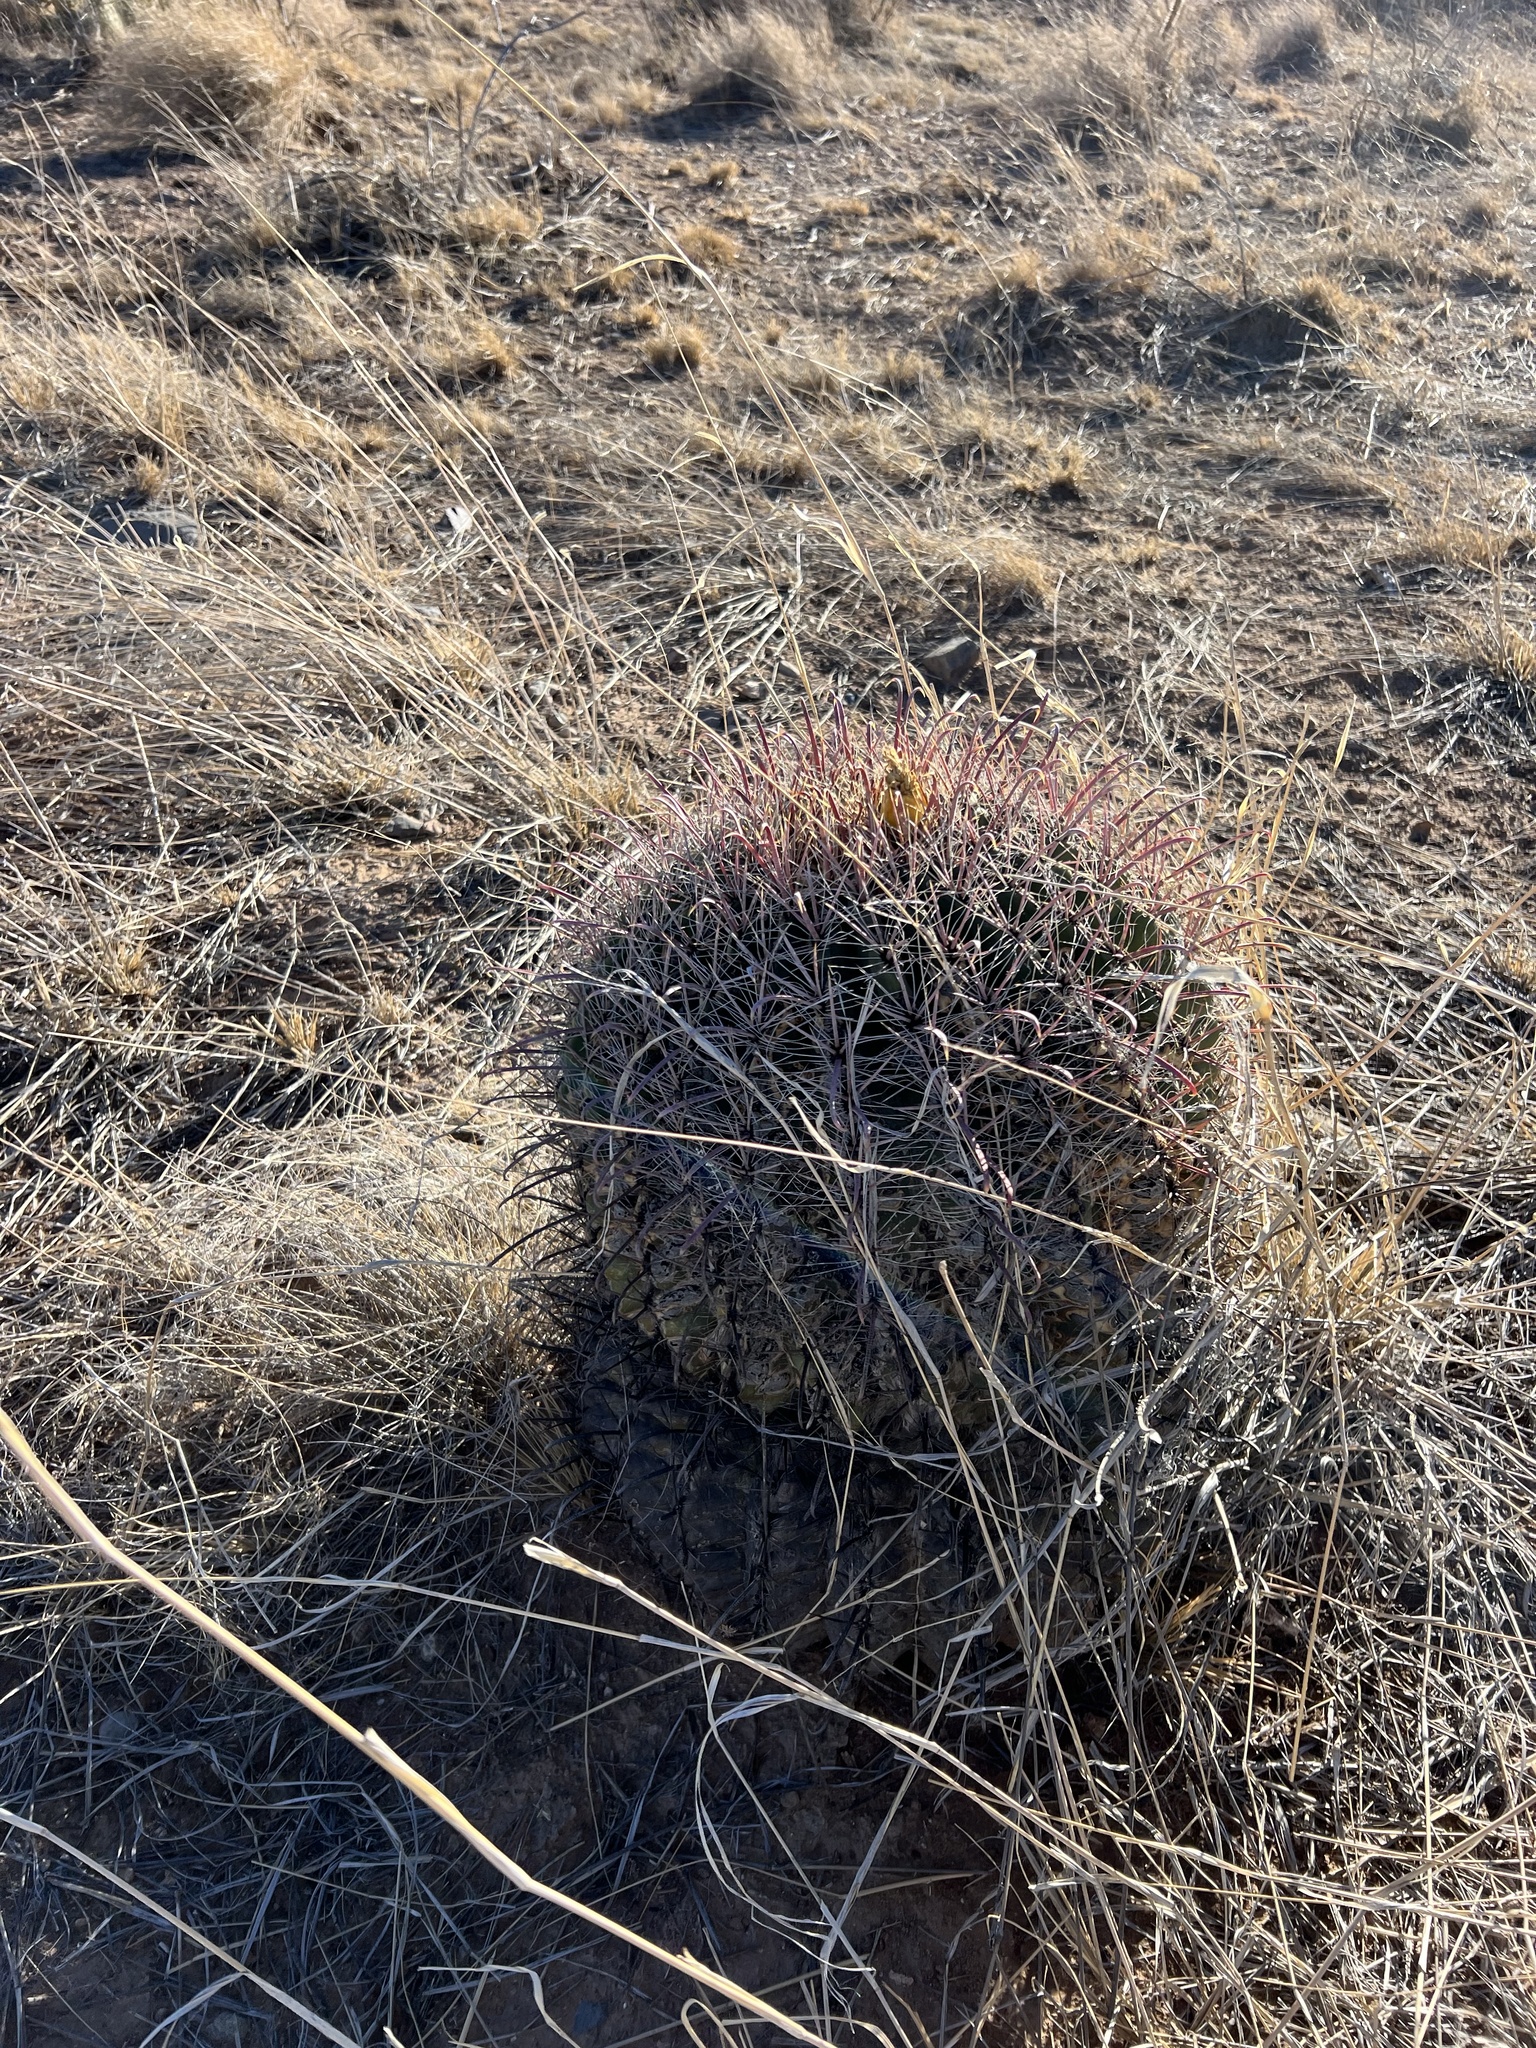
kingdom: Plantae
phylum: Tracheophyta
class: Magnoliopsida
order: Caryophyllales
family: Cactaceae
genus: Ferocactus
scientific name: Ferocactus wislizeni
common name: Candy barrel cactus
